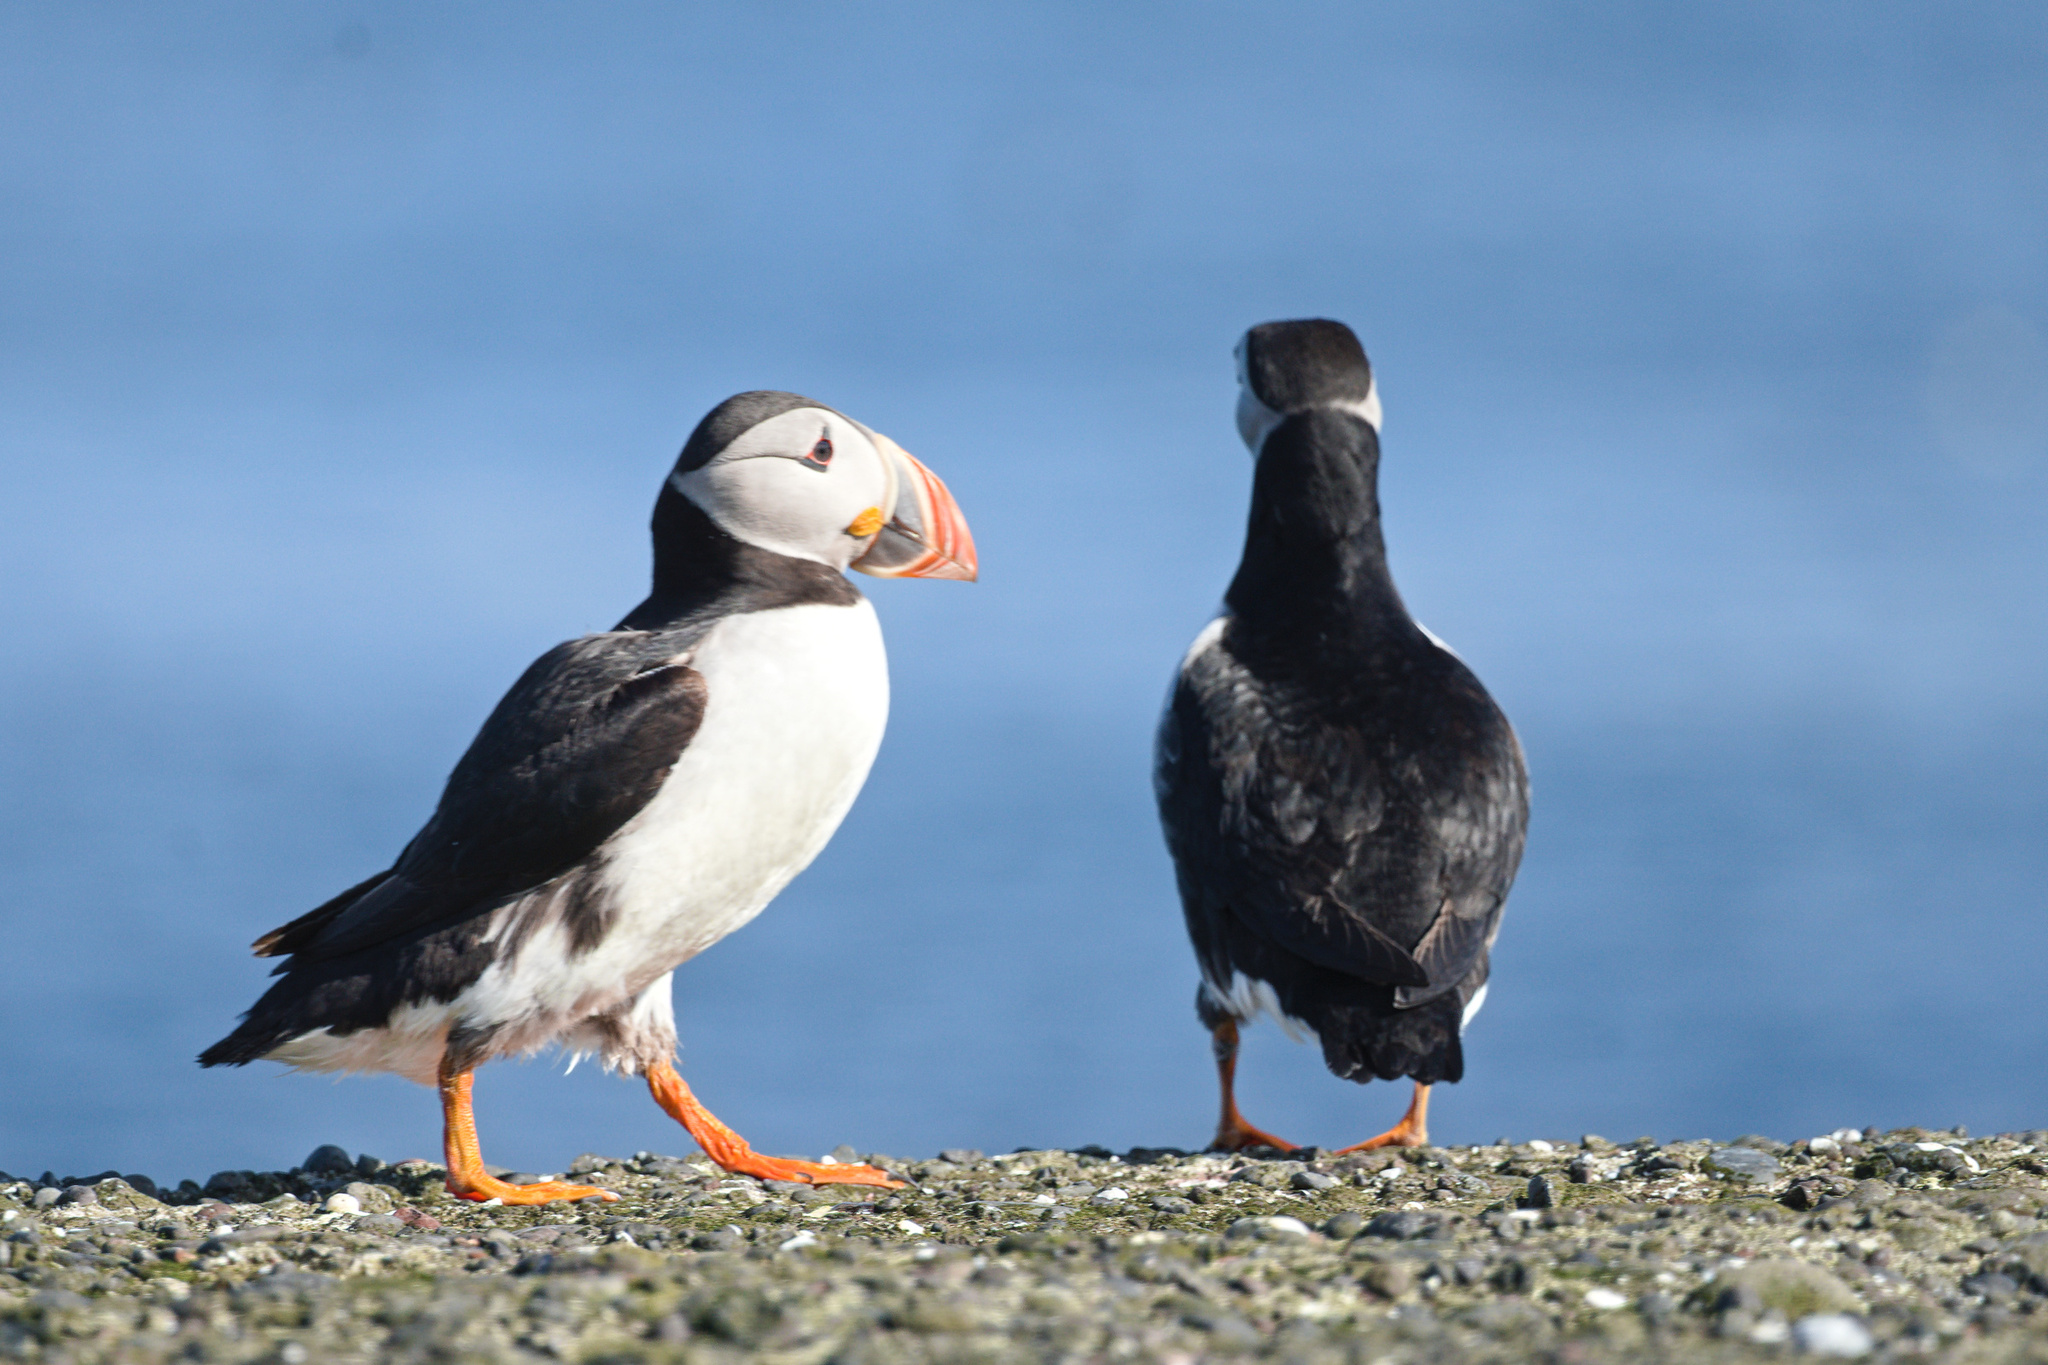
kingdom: Animalia
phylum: Chordata
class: Aves
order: Charadriiformes
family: Alcidae
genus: Fratercula
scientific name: Fratercula arctica
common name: Atlantic puffin
